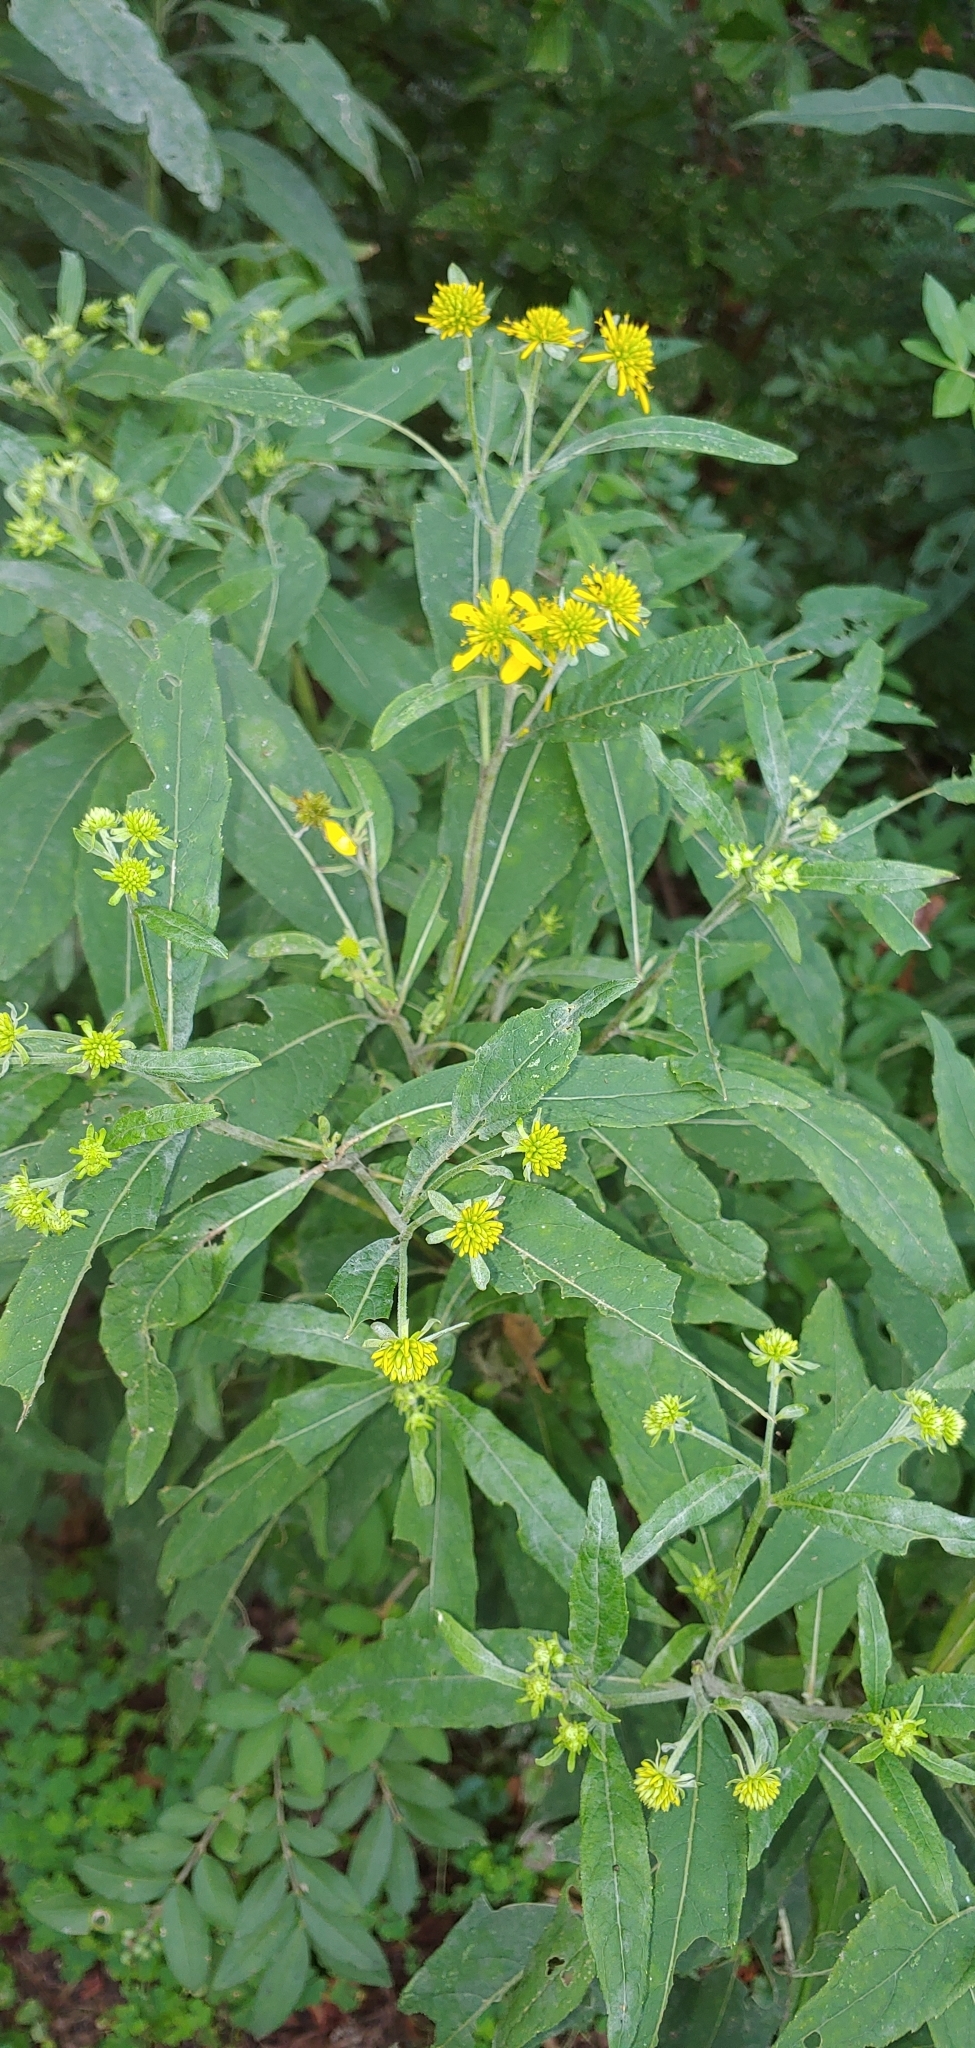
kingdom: Plantae
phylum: Tracheophyta
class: Magnoliopsida
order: Asterales
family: Asteraceae
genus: Verbesina
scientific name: Verbesina alternifolia
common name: Wingstem
